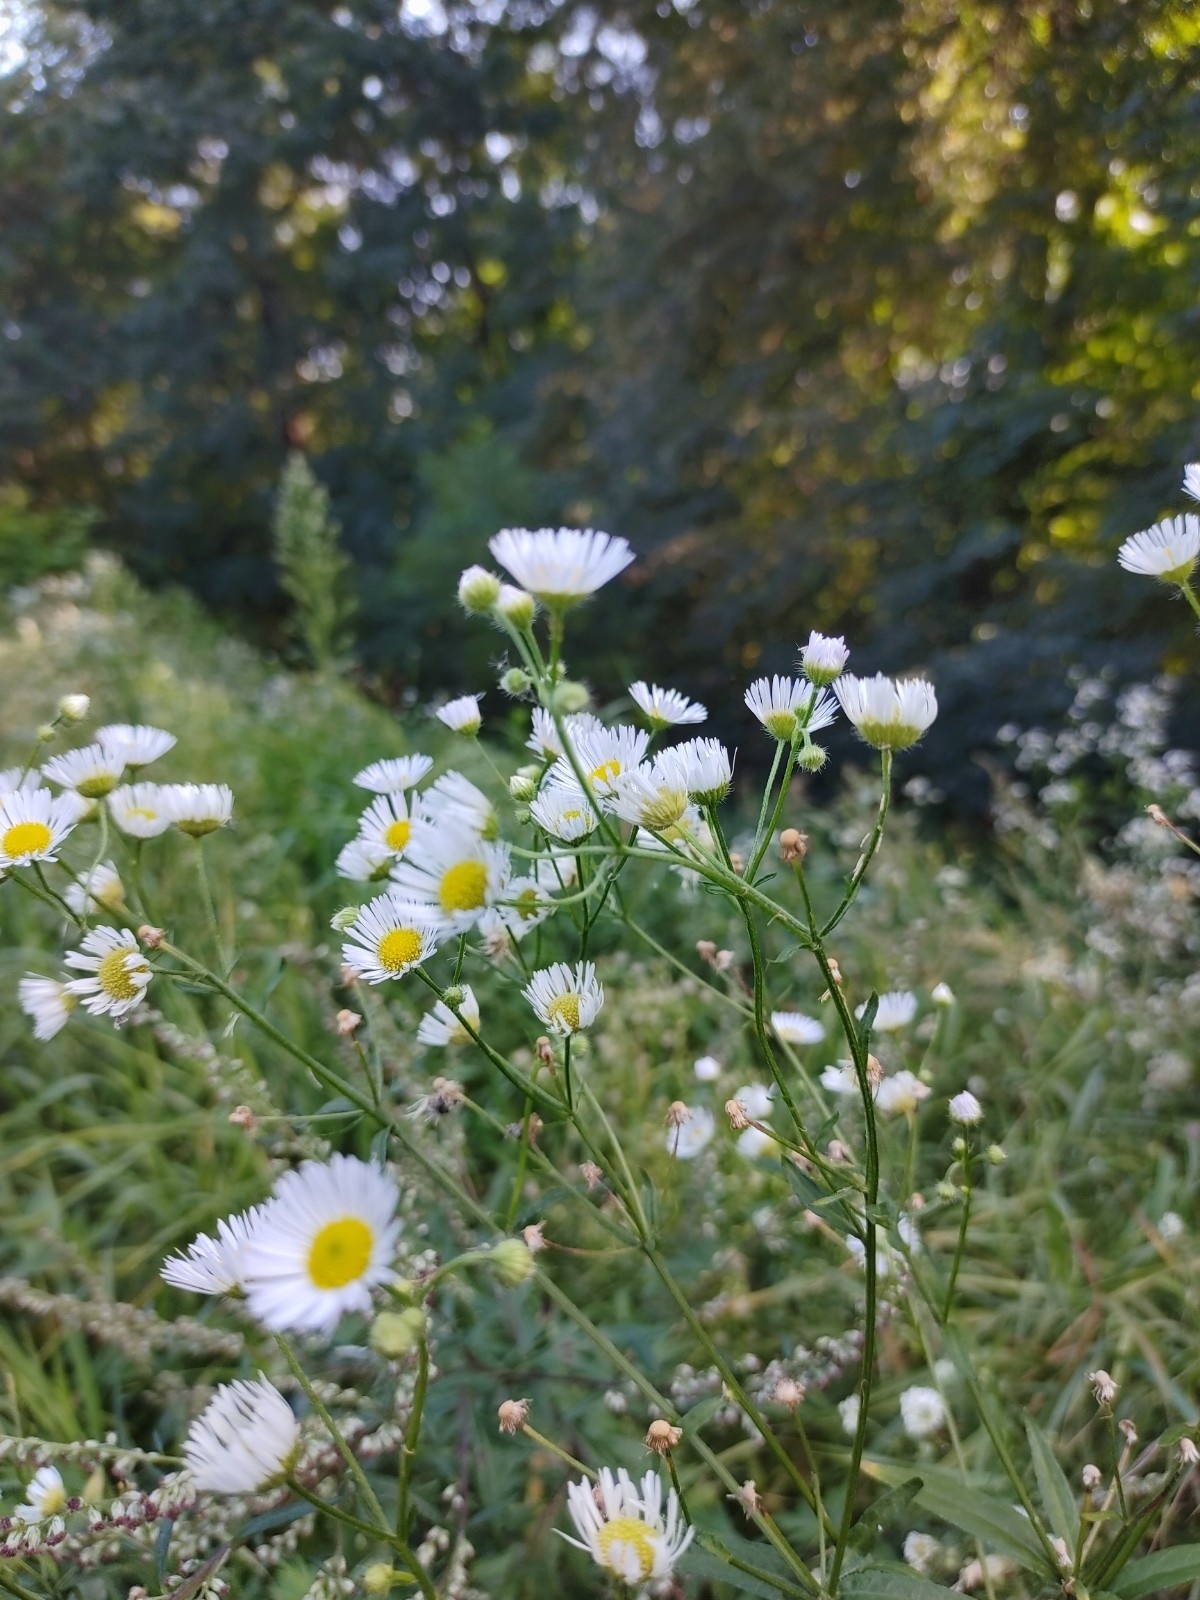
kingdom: Plantae
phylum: Tracheophyta
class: Magnoliopsida
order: Asterales
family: Asteraceae
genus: Erigeron
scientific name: Erigeron annuus
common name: Tall fleabane
